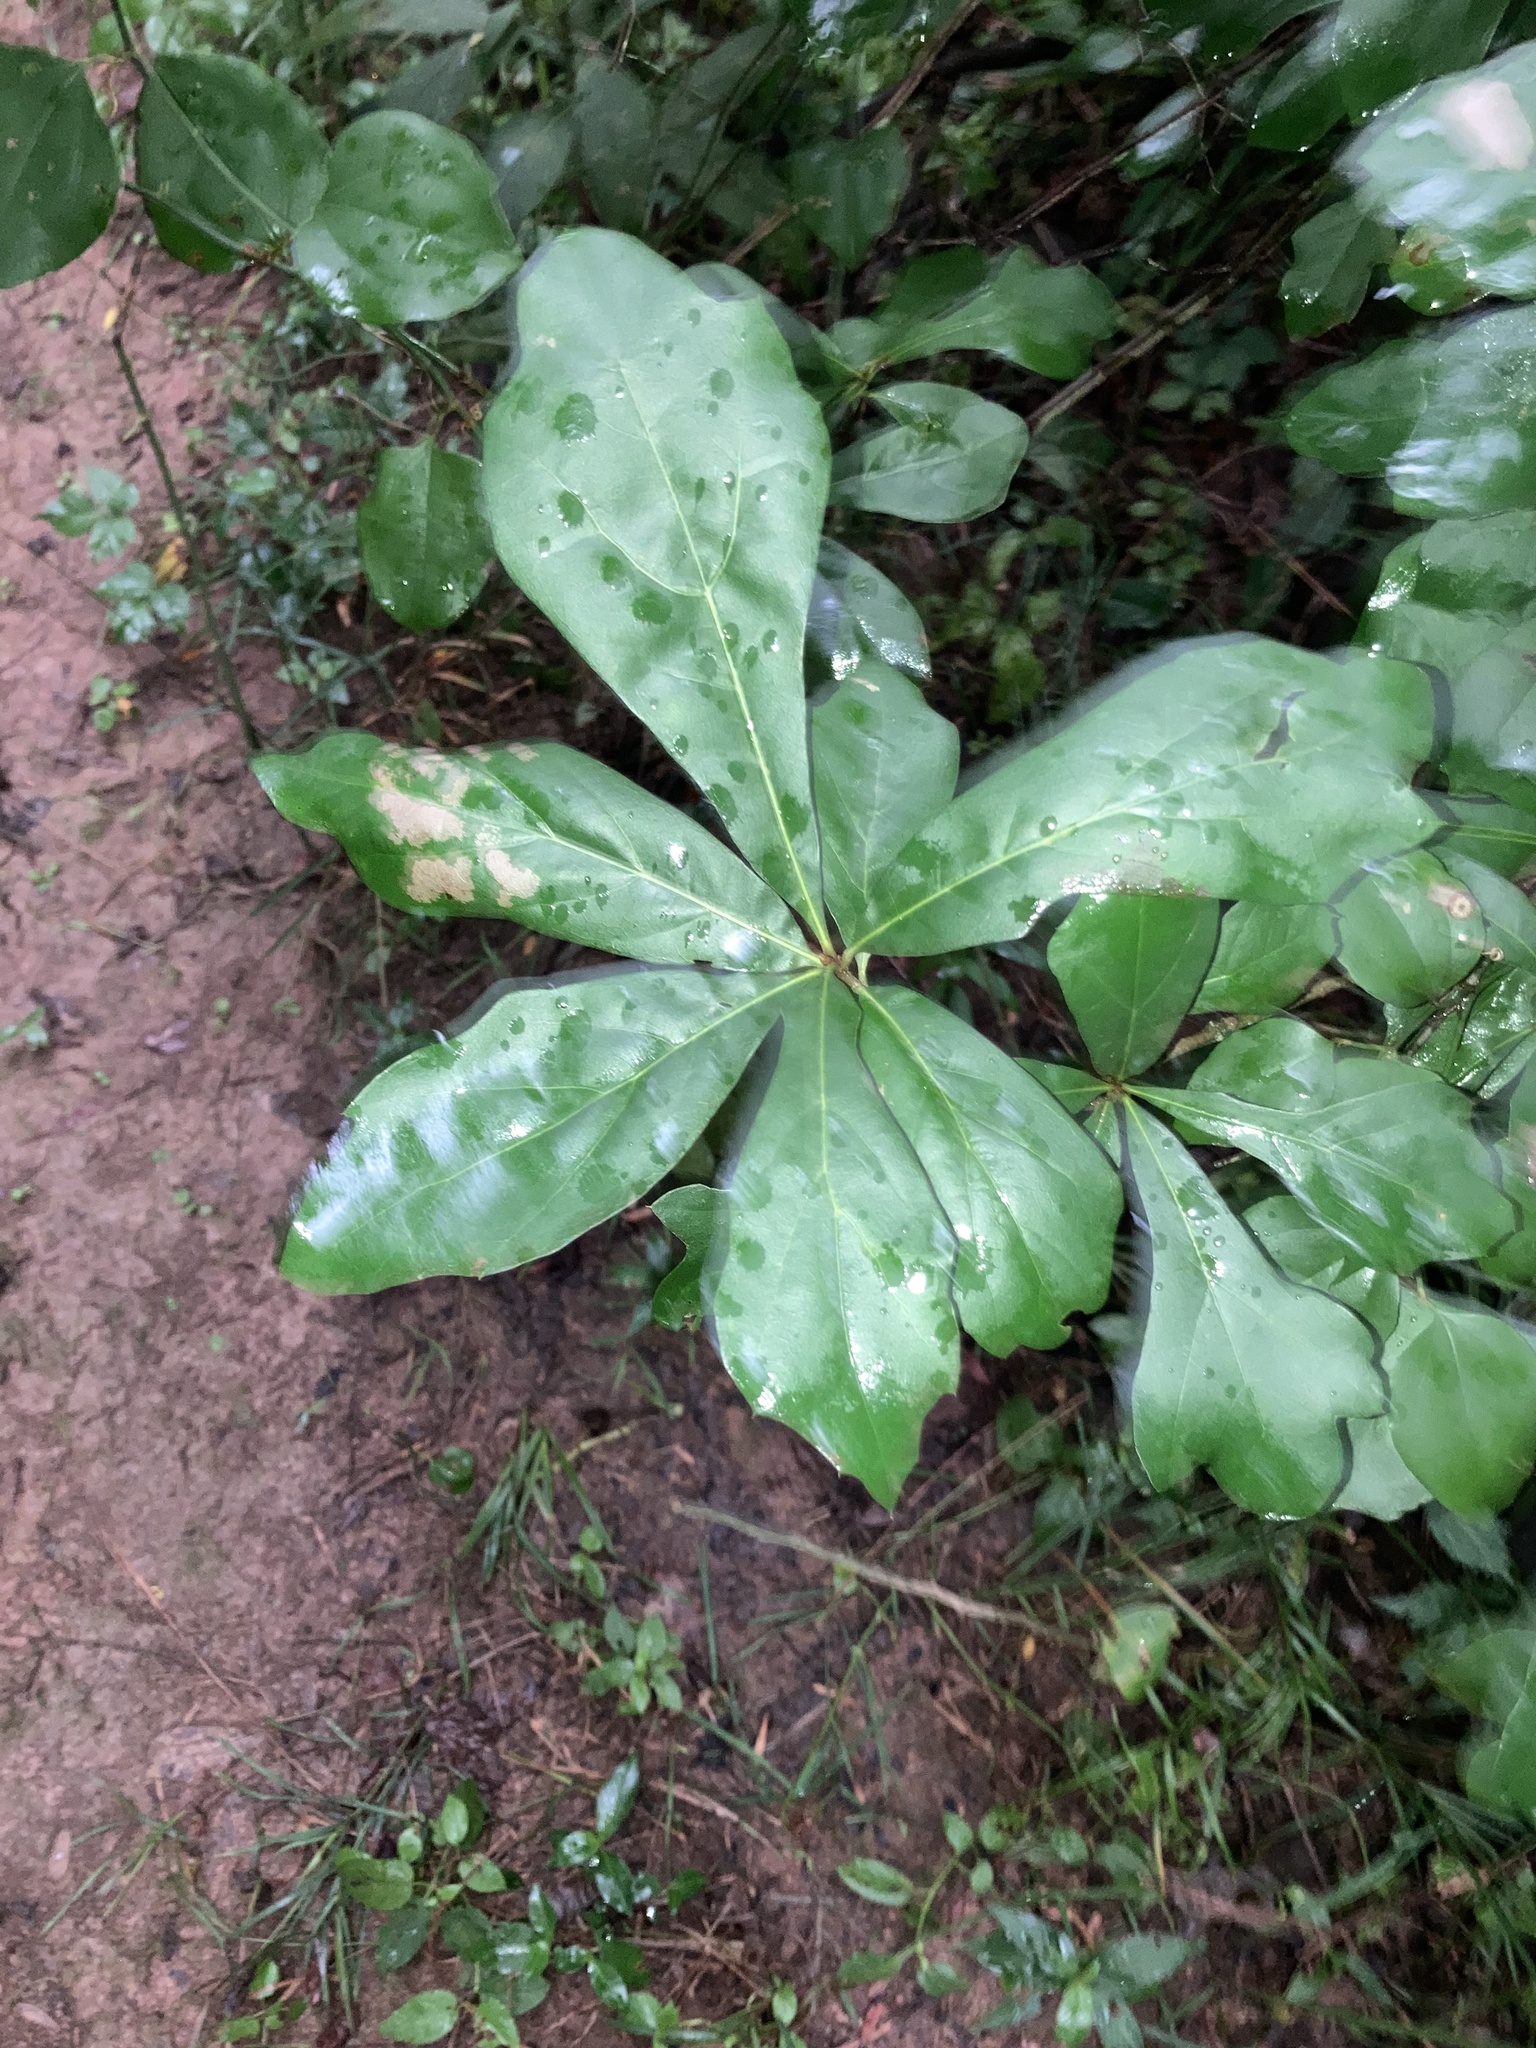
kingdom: Plantae
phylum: Tracheophyta
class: Magnoliopsida
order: Fagales
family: Fagaceae
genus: Quercus
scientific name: Quercus nigra
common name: Water oak
